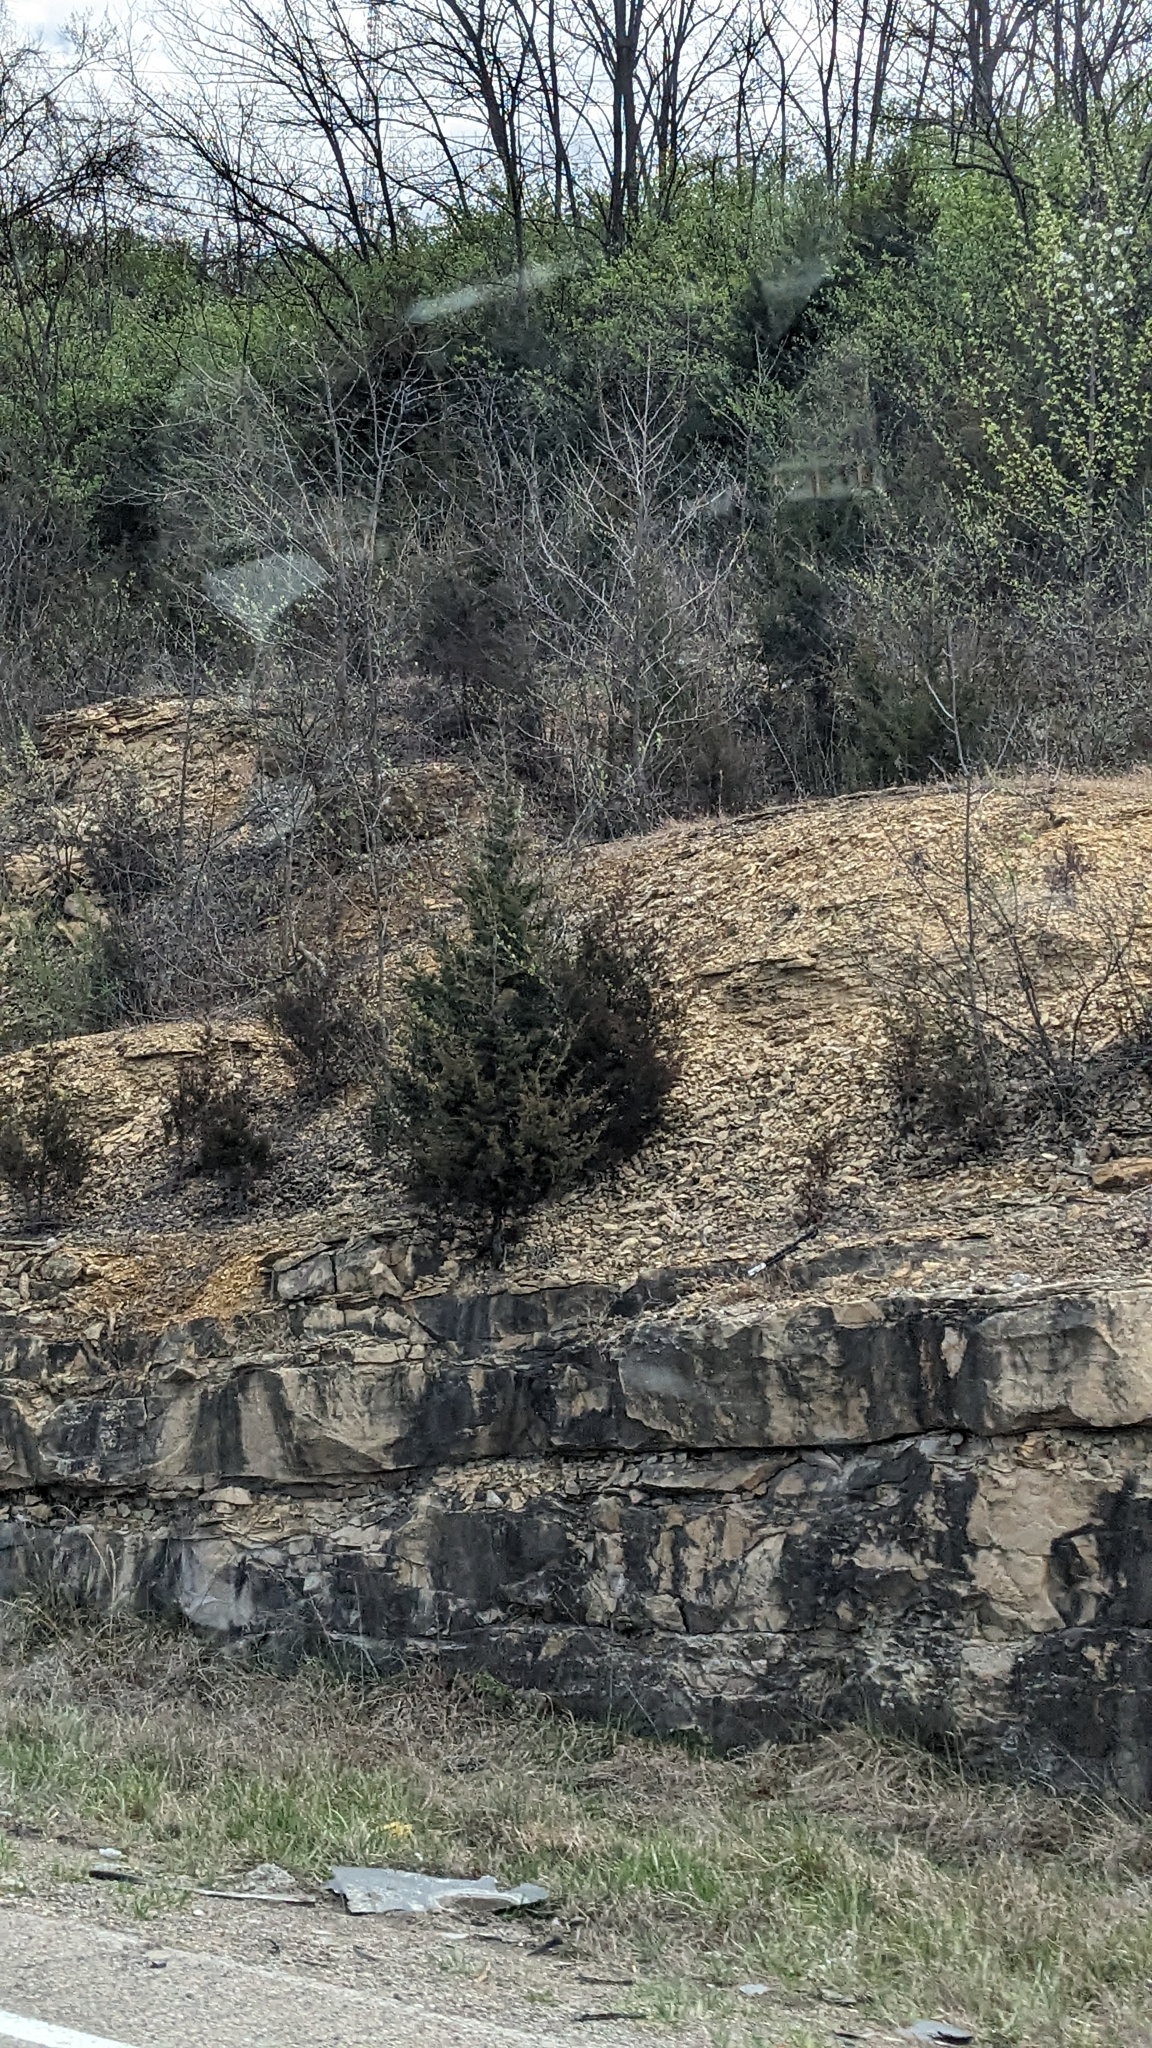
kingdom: Plantae
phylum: Tracheophyta
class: Pinopsida
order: Pinales
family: Cupressaceae
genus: Juniperus
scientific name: Juniperus virginiana
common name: Red juniper
